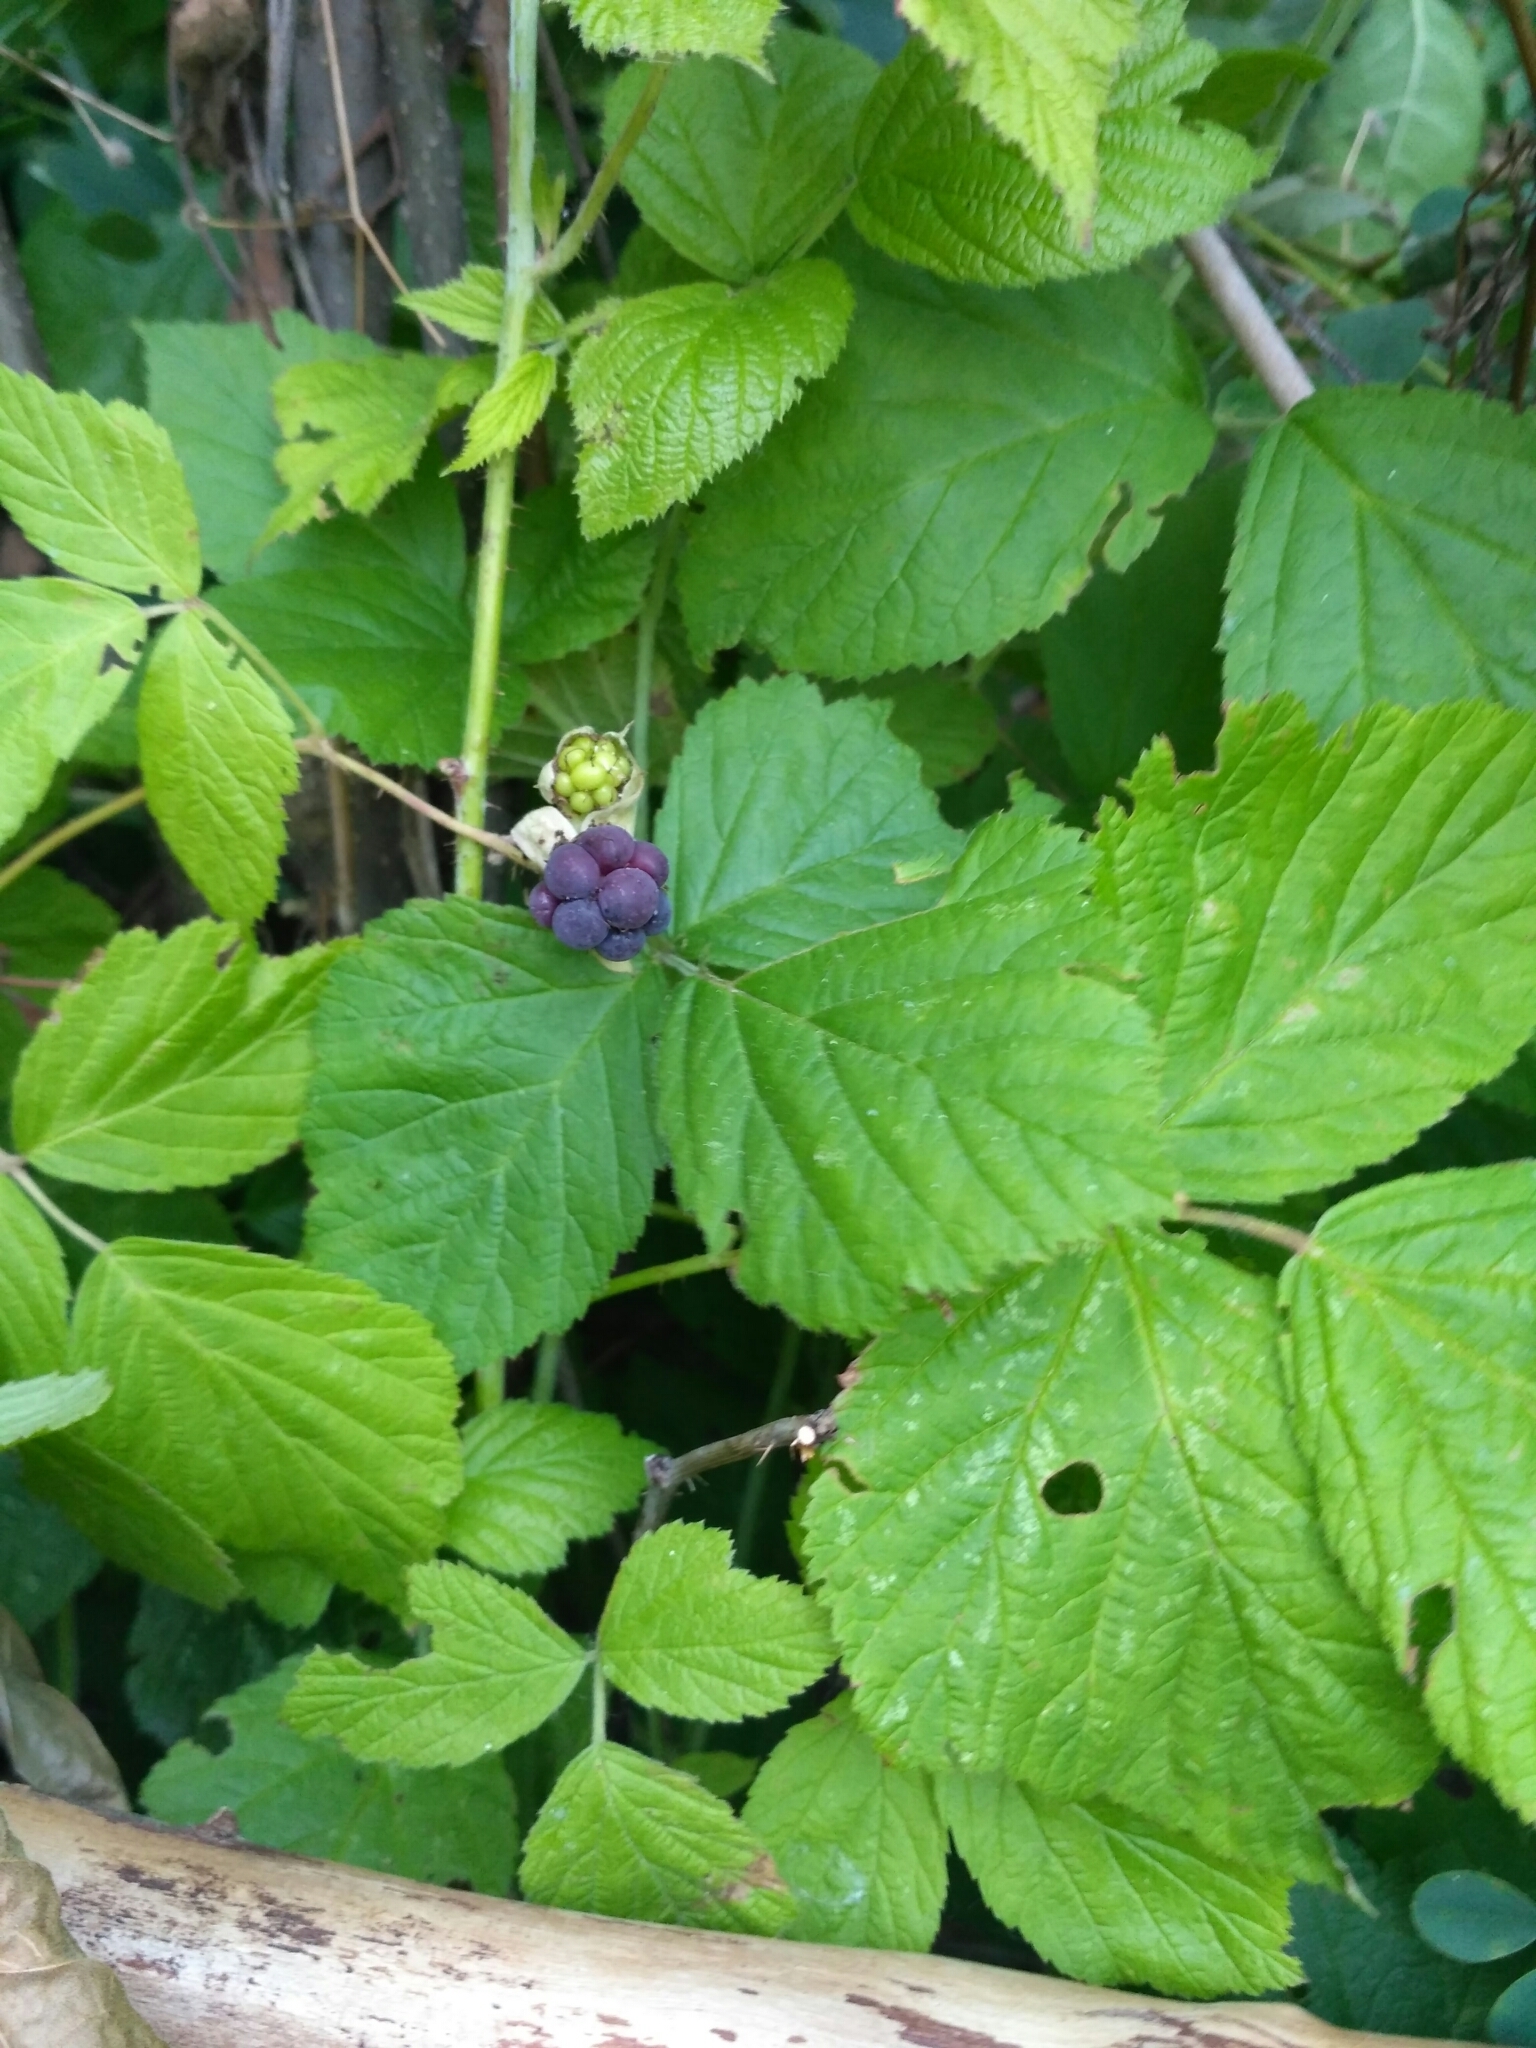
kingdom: Plantae
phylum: Tracheophyta
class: Magnoliopsida
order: Rosales
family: Rosaceae
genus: Rubus
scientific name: Rubus caesius
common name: Dewberry
